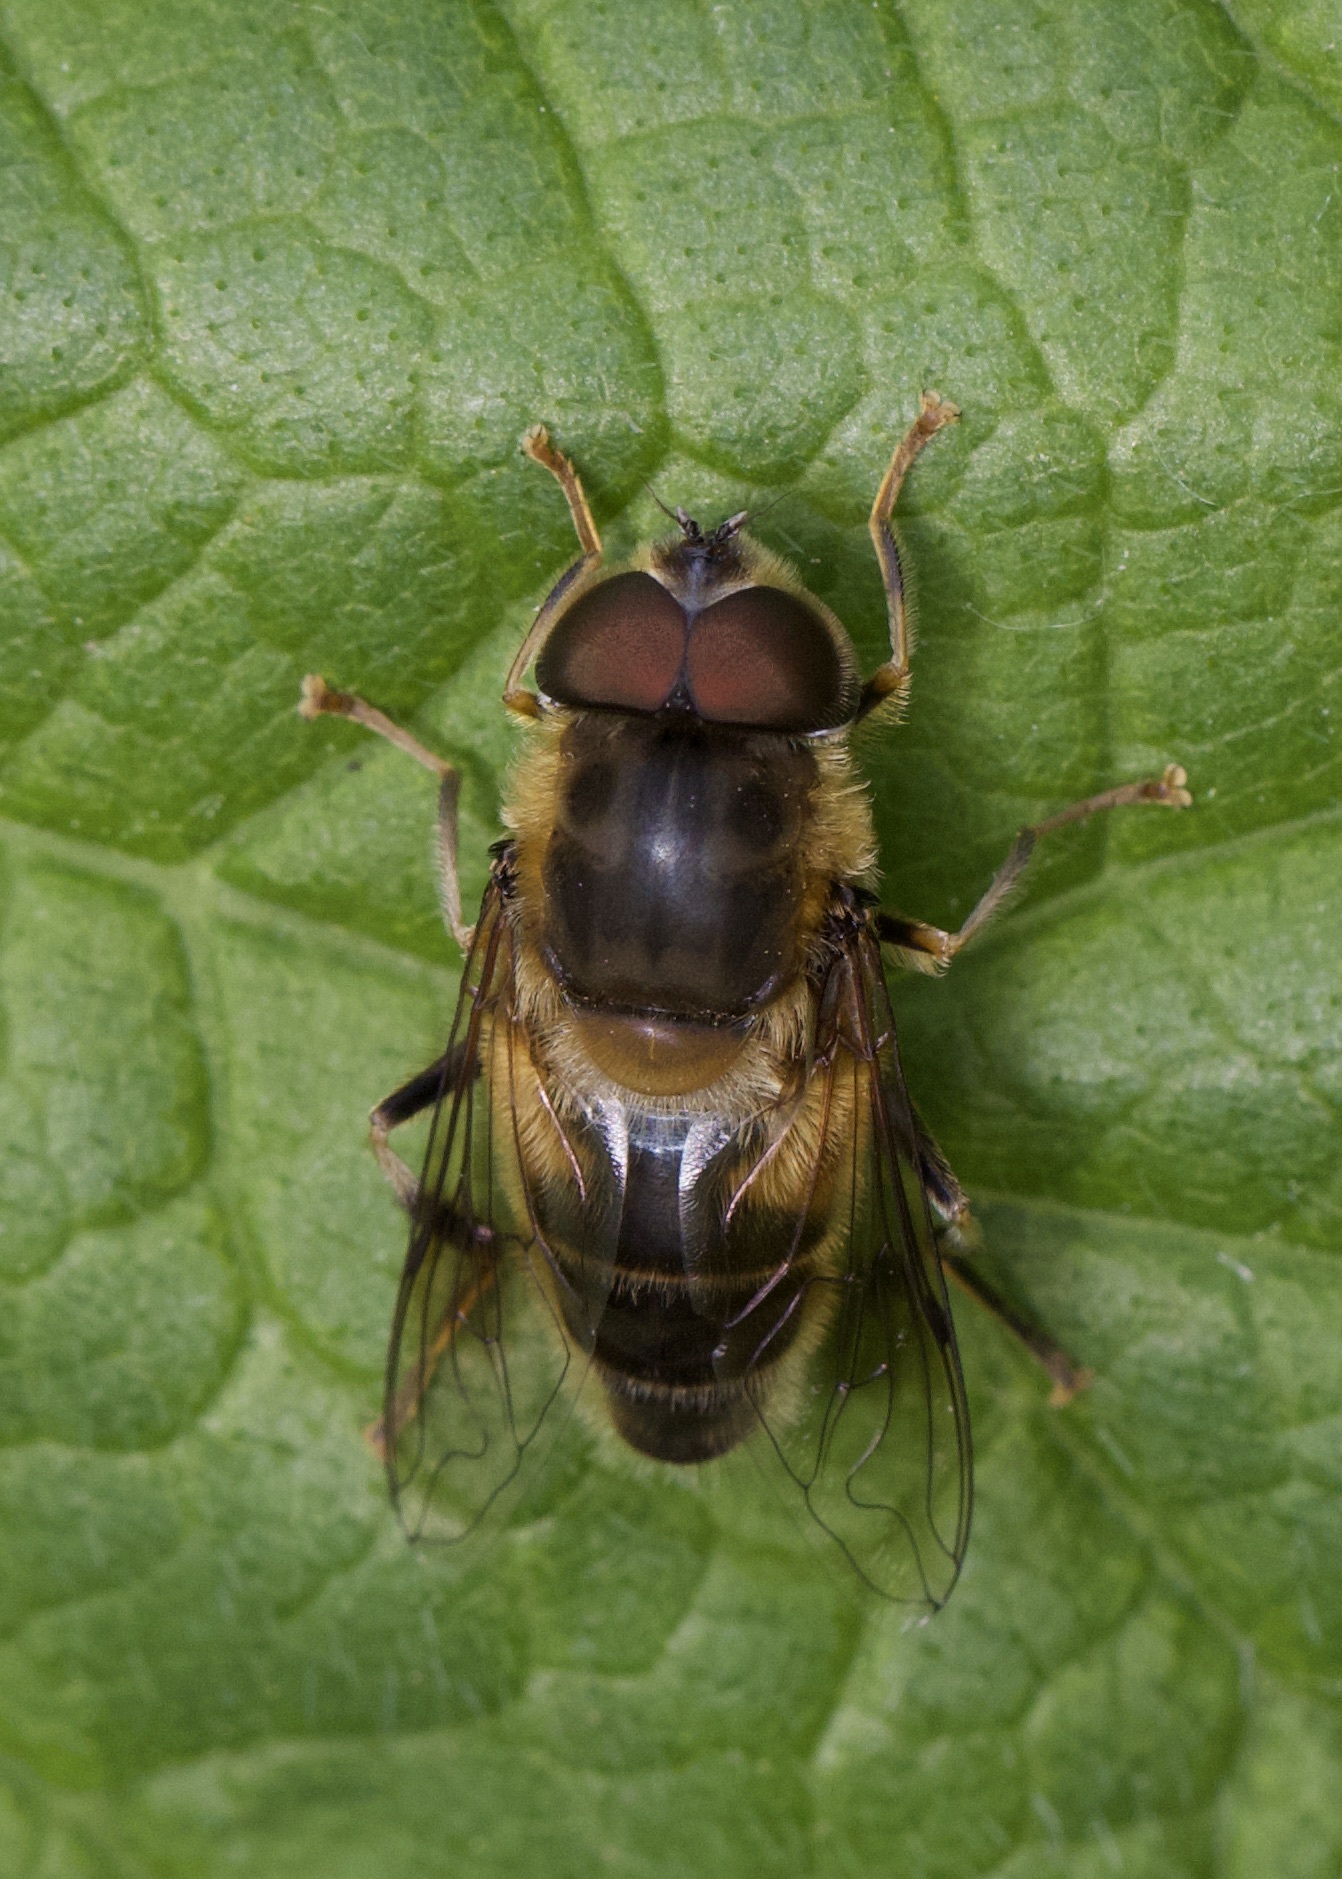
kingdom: Animalia
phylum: Arthropoda
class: Insecta
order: Diptera
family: Syrphidae
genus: Eristalis
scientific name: Eristalis pertinax
